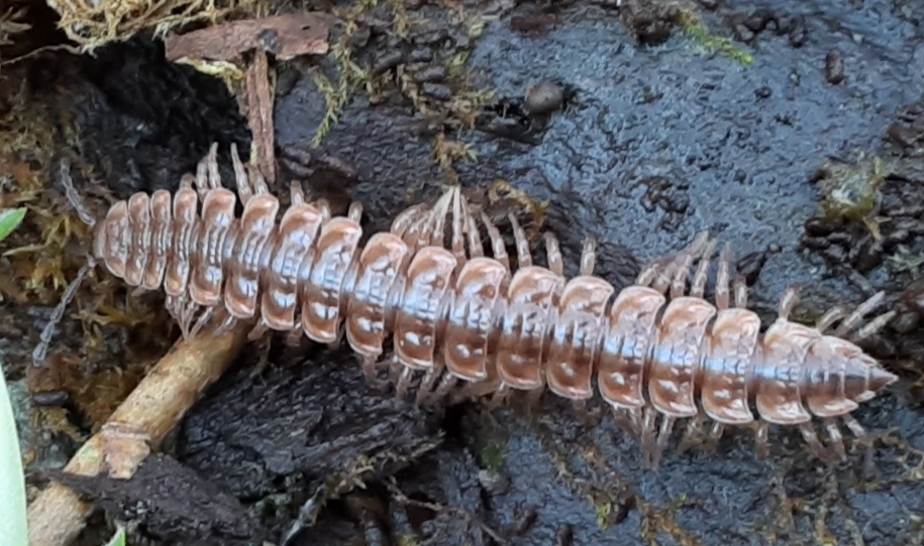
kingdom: Animalia
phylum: Arthropoda
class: Diplopoda
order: Polydesmida
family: Polydesmidae
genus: Pseudopolydesmus
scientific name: Pseudopolydesmus serratus
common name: Common pink flat-back millipede
